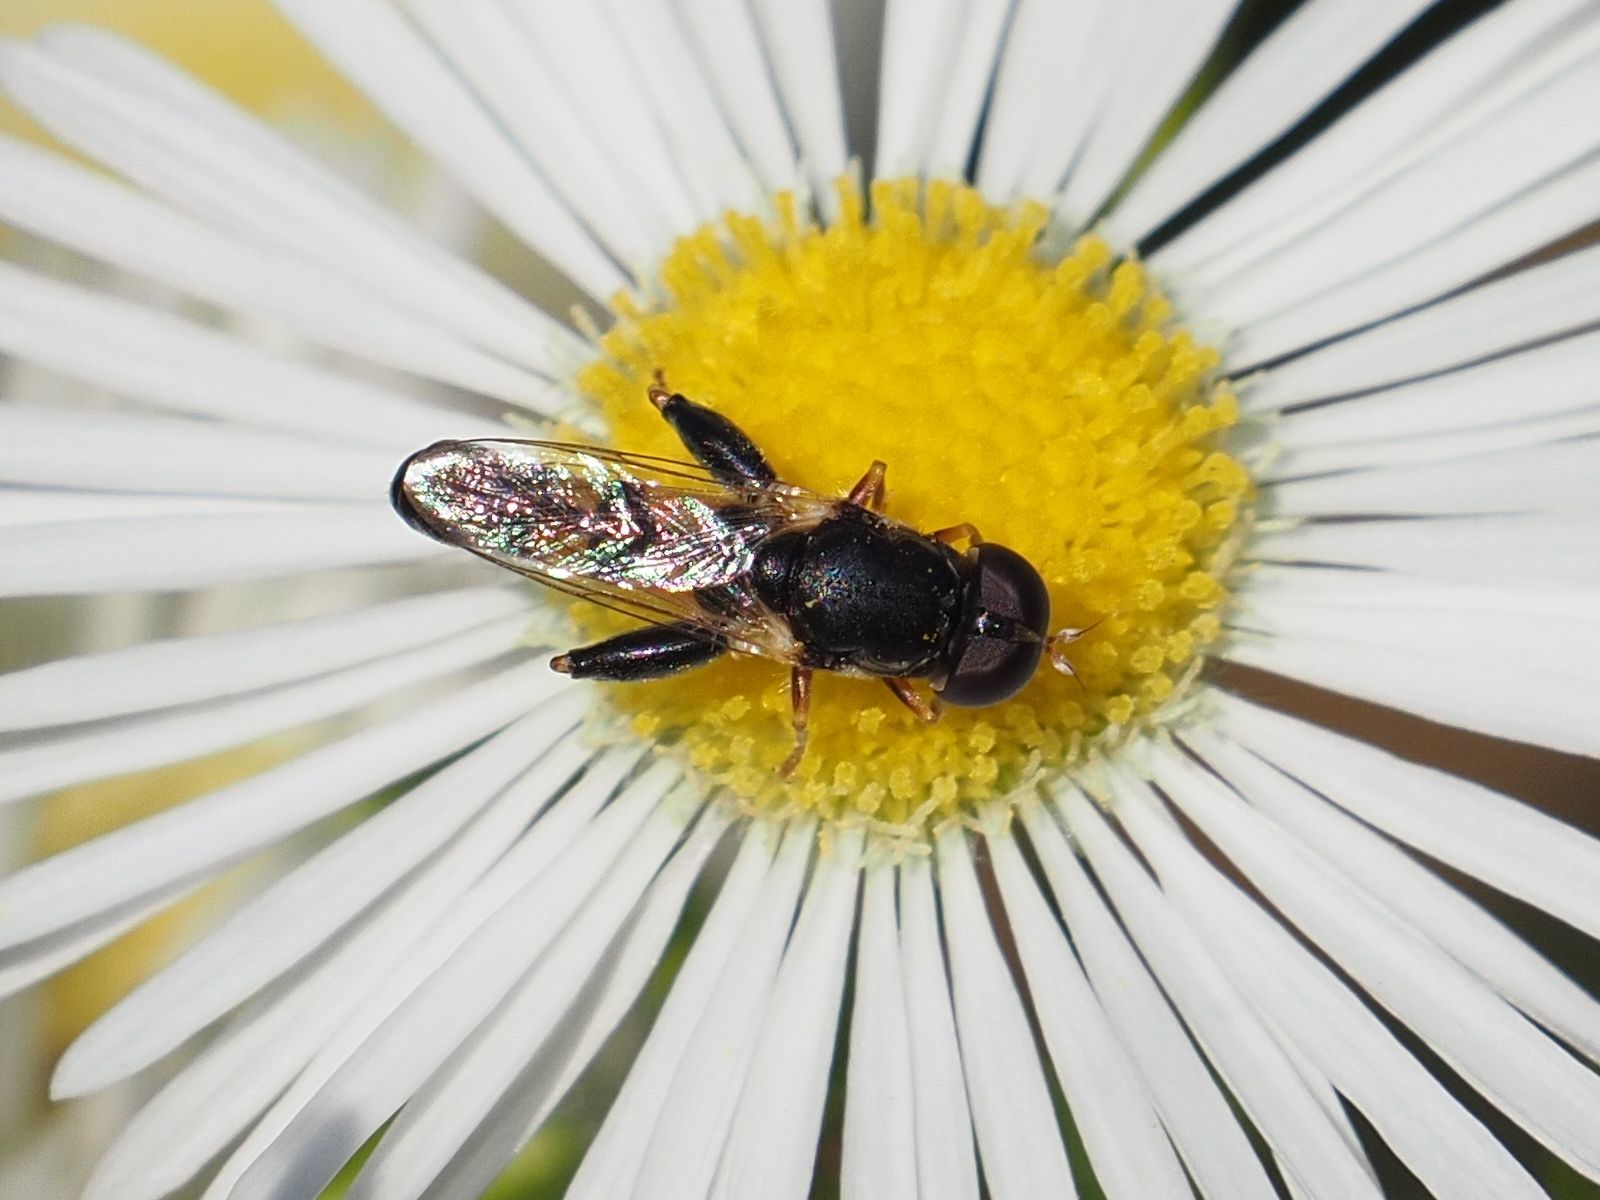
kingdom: Animalia
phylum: Arthropoda
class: Insecta
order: Diptera
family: Syrphidae
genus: Syritta
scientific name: Syritta pipiens
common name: Hover fly
